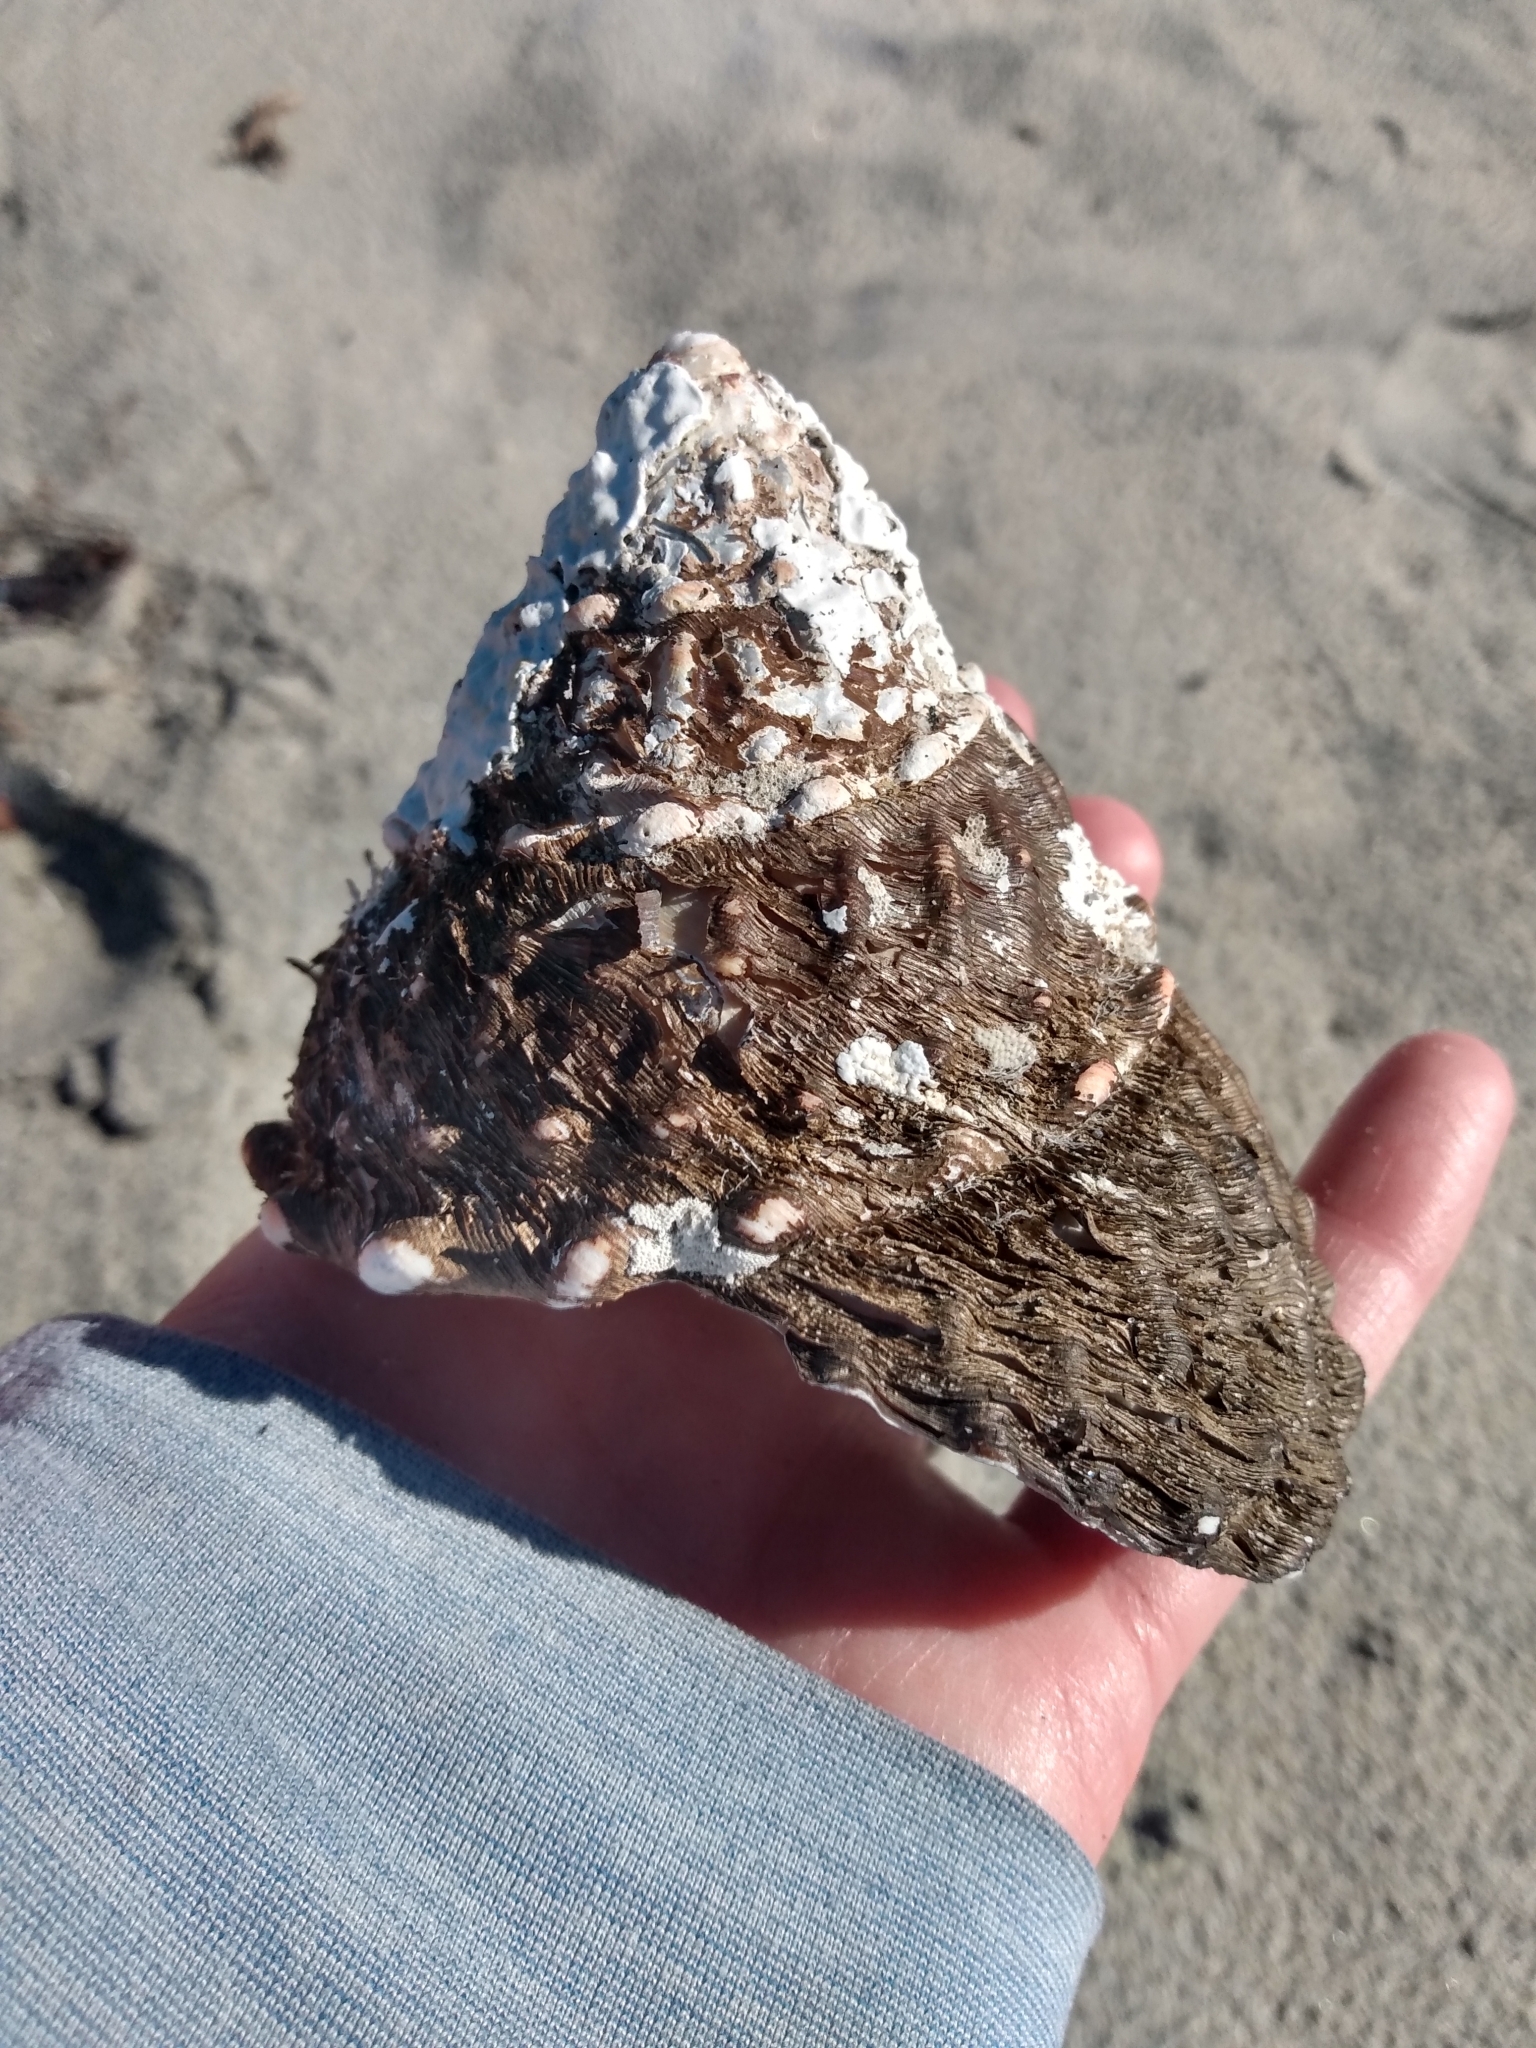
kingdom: Animalia
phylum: Mollusca
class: Gastropoda
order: Trochida
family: Turbinidae
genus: Megastraea
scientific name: Megastraea undosa
